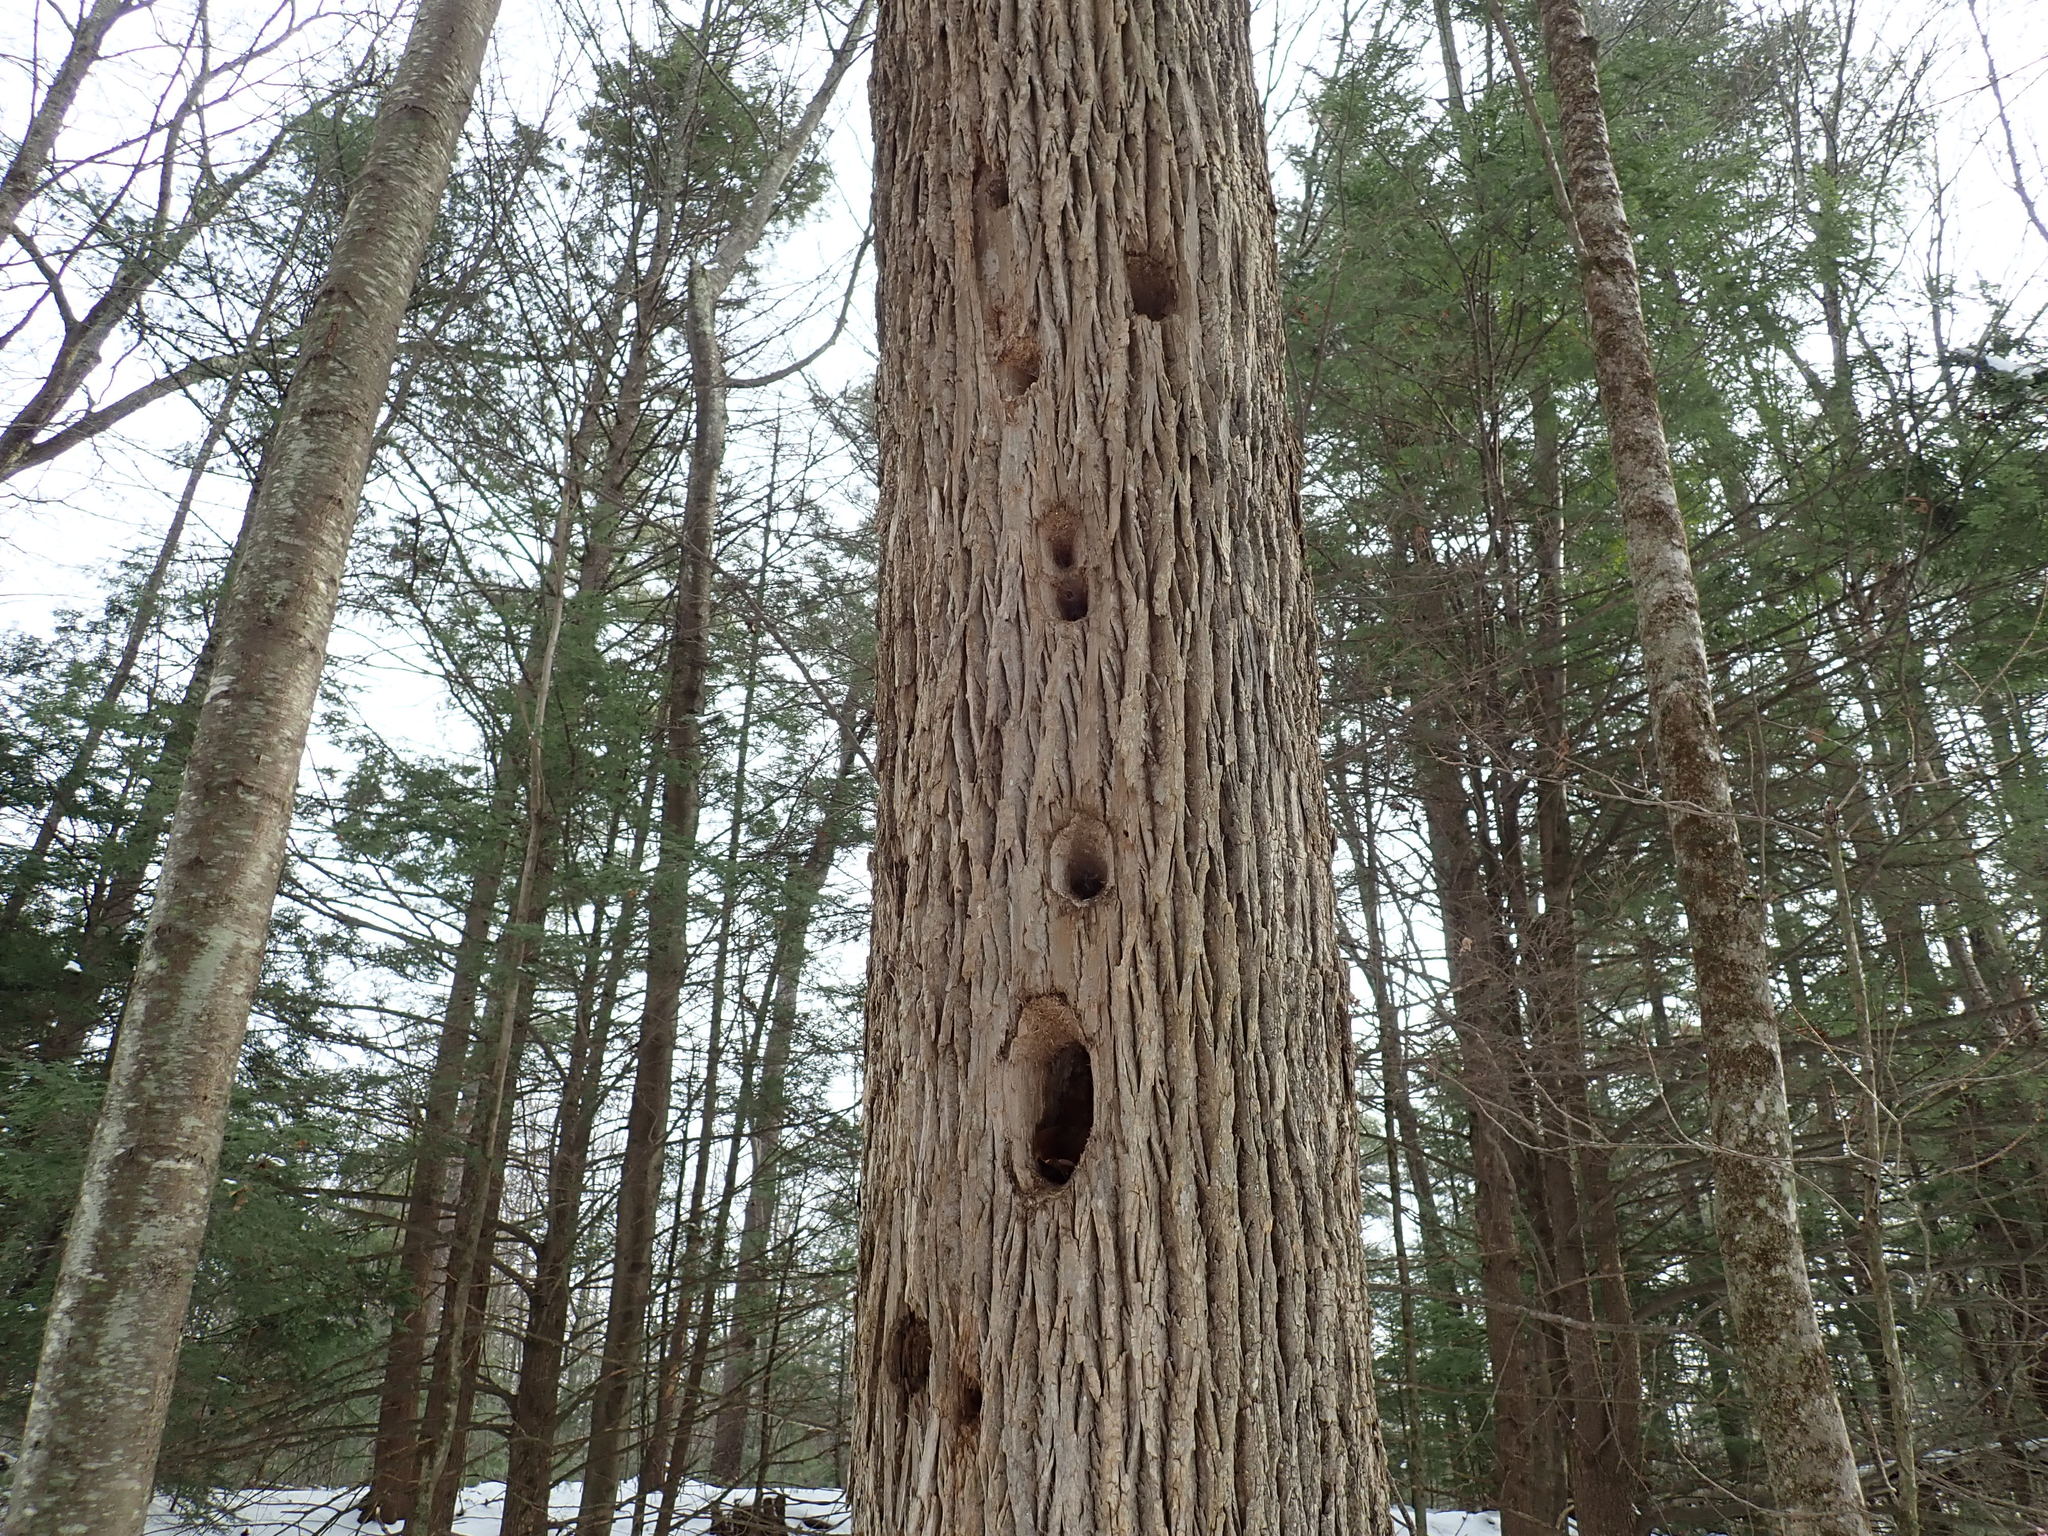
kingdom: Animalia
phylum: Chordata
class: Aves
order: Piciformes
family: Picidae
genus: Dryocopus
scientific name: Dryocopus pileatus
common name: Pileated woodpecker
